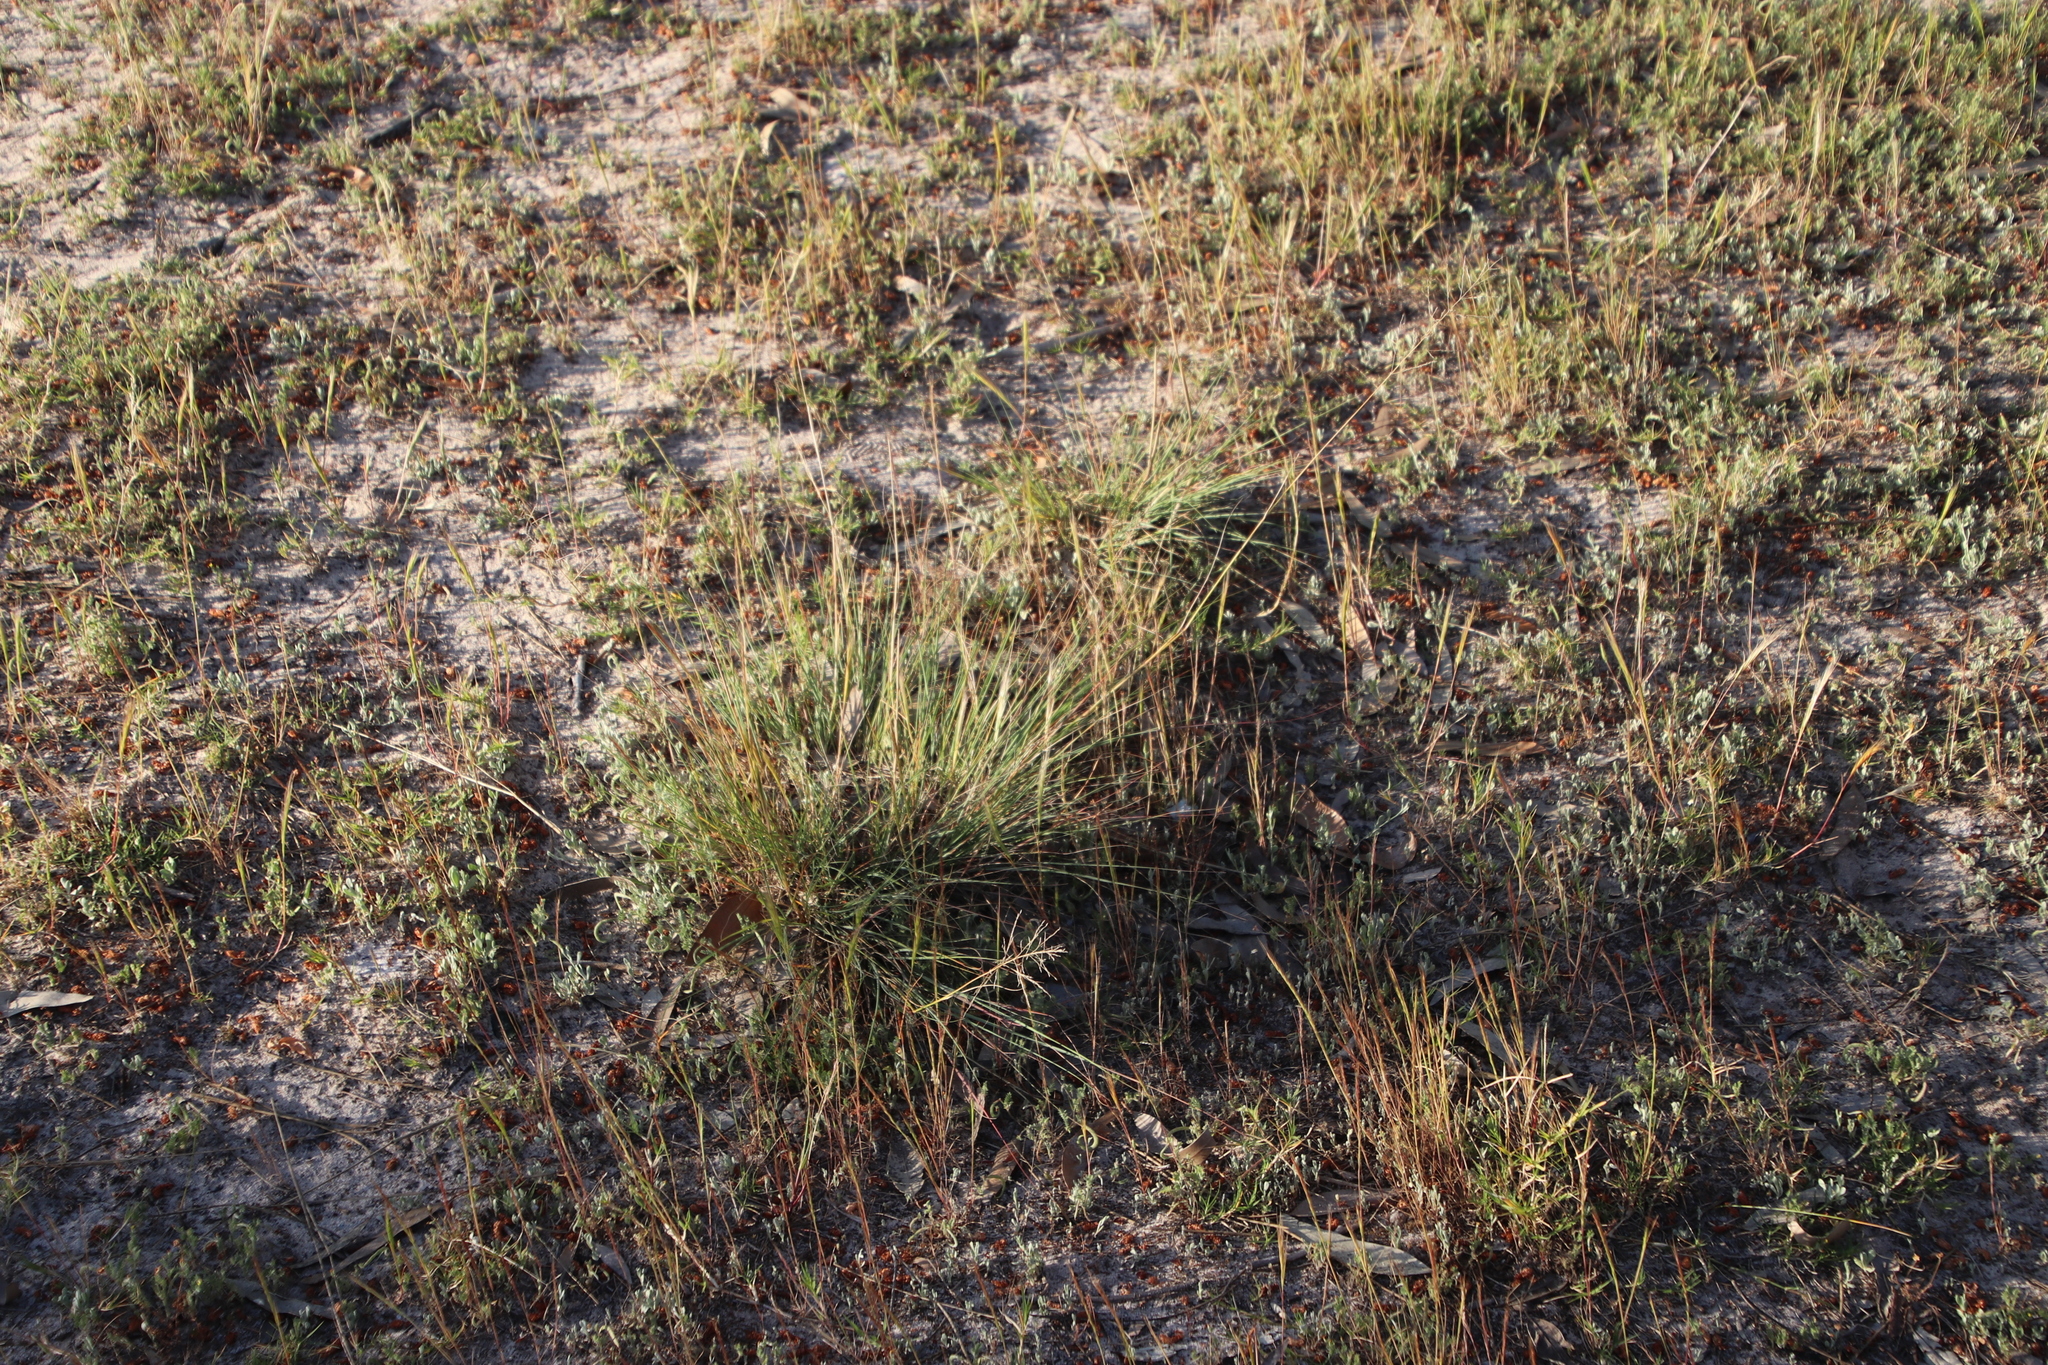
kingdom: Plantae
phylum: Tracheophyta
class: Liliopsida
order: Poales
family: Poaceae
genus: Eragrostis
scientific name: Eragrostis curvula
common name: African love-grass
